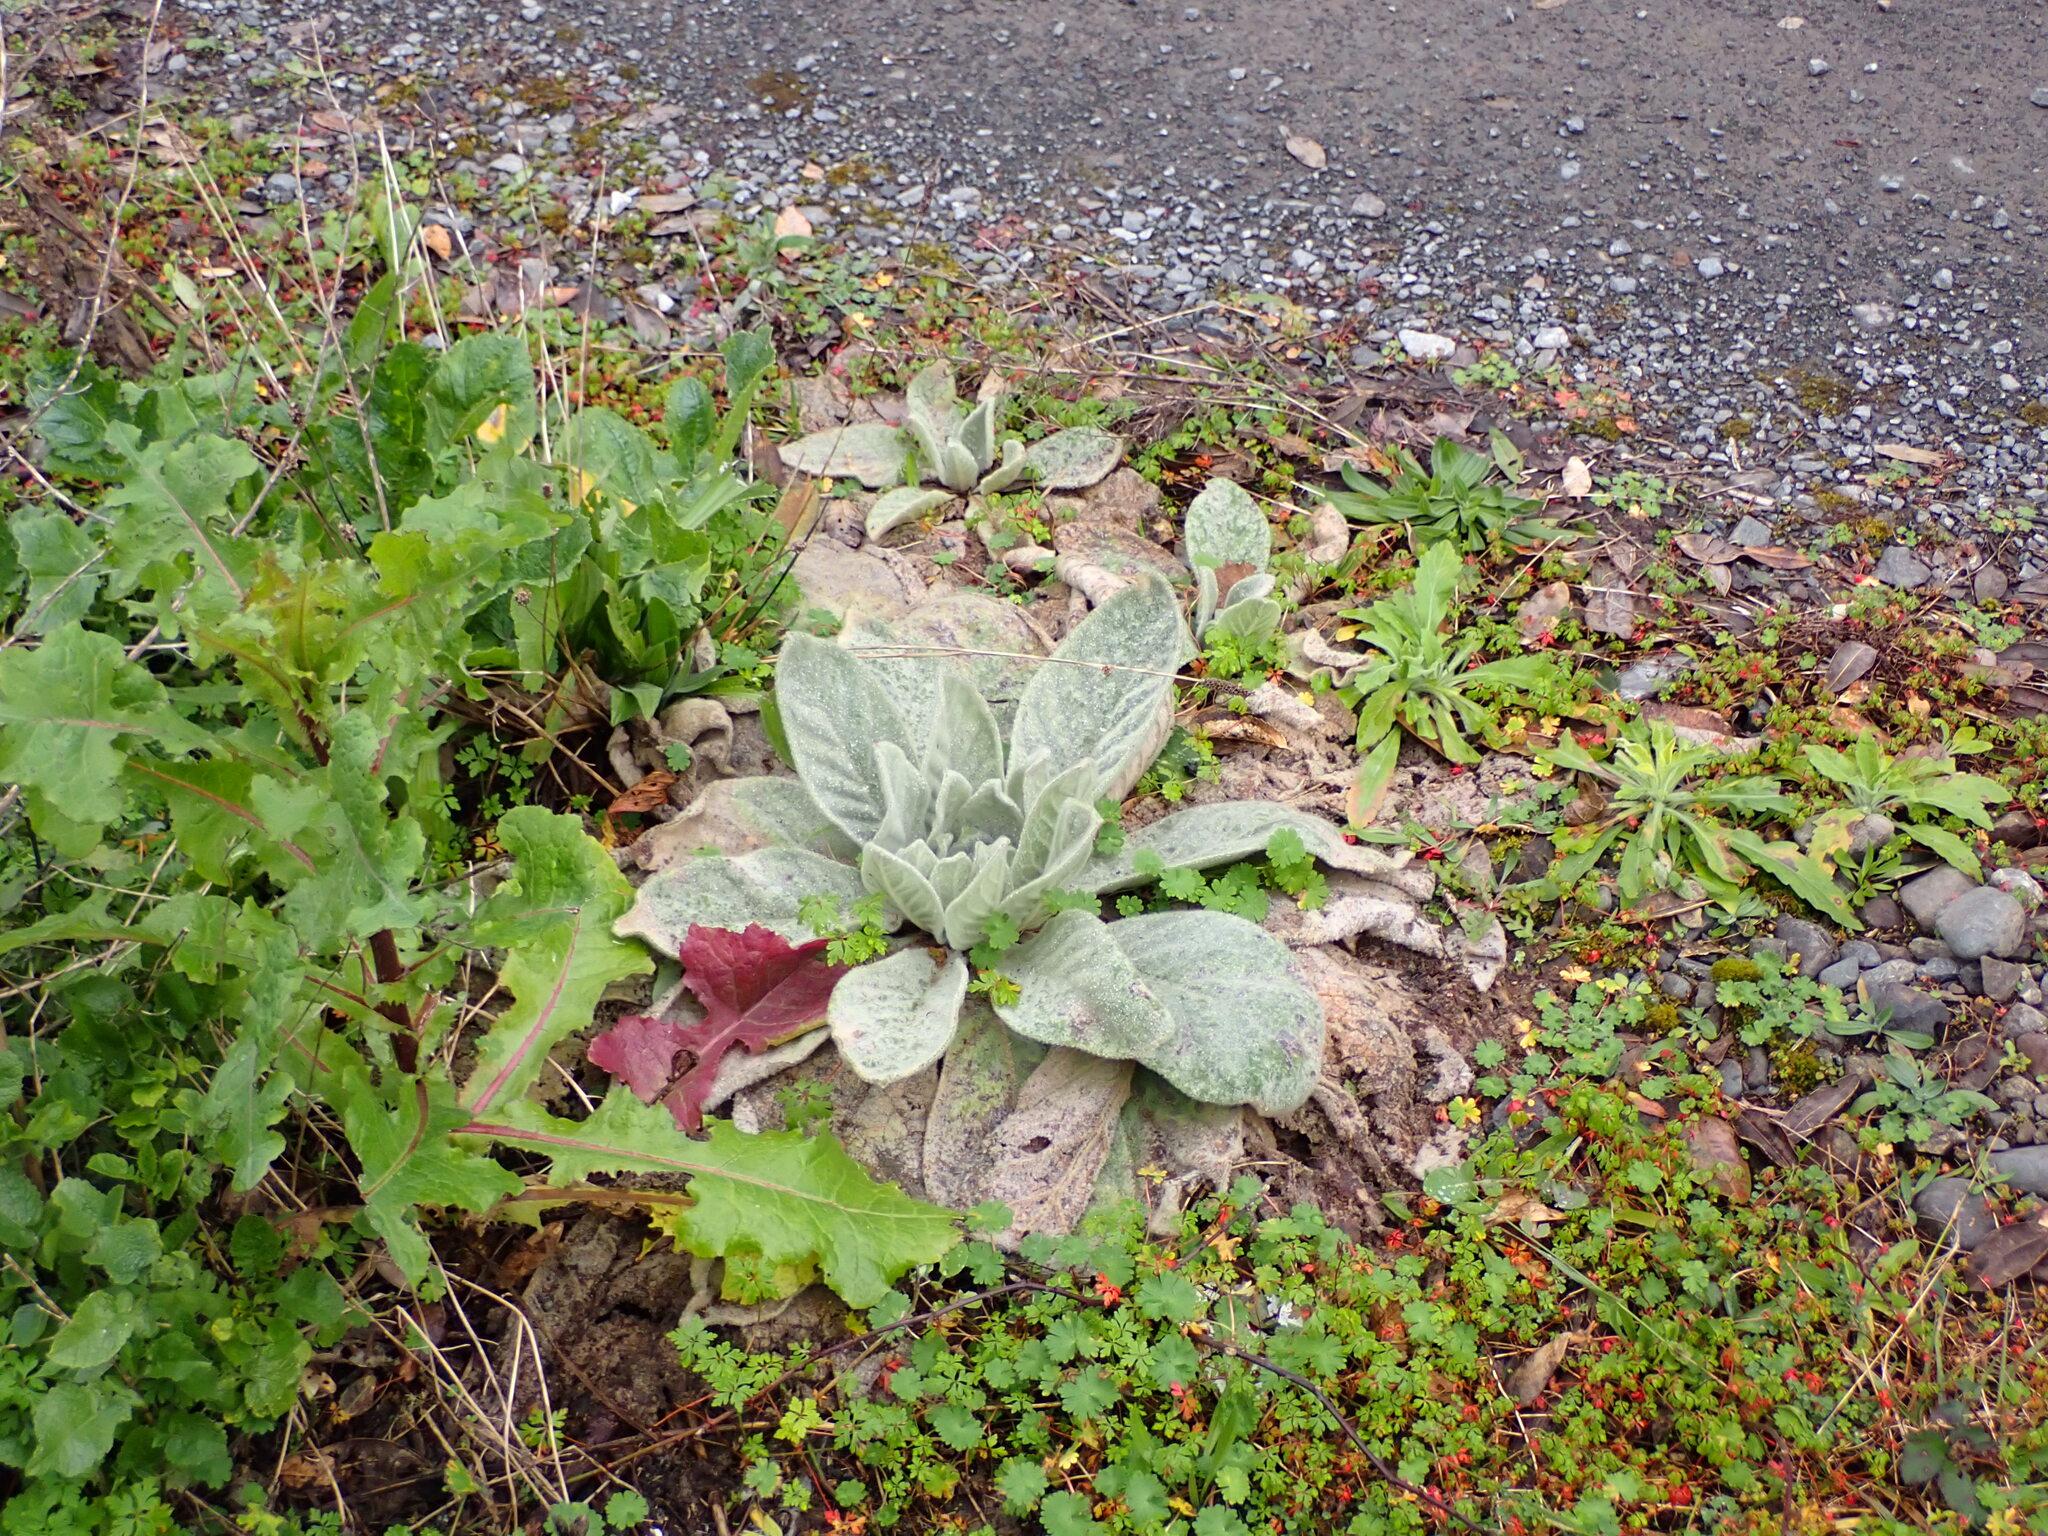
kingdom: Plantae
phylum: Tracheophyta
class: Magnoliopsida
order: Lamiales
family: Scrophulariaceae
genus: Verbascum
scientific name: Verbascum thapsus
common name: Common mullein
